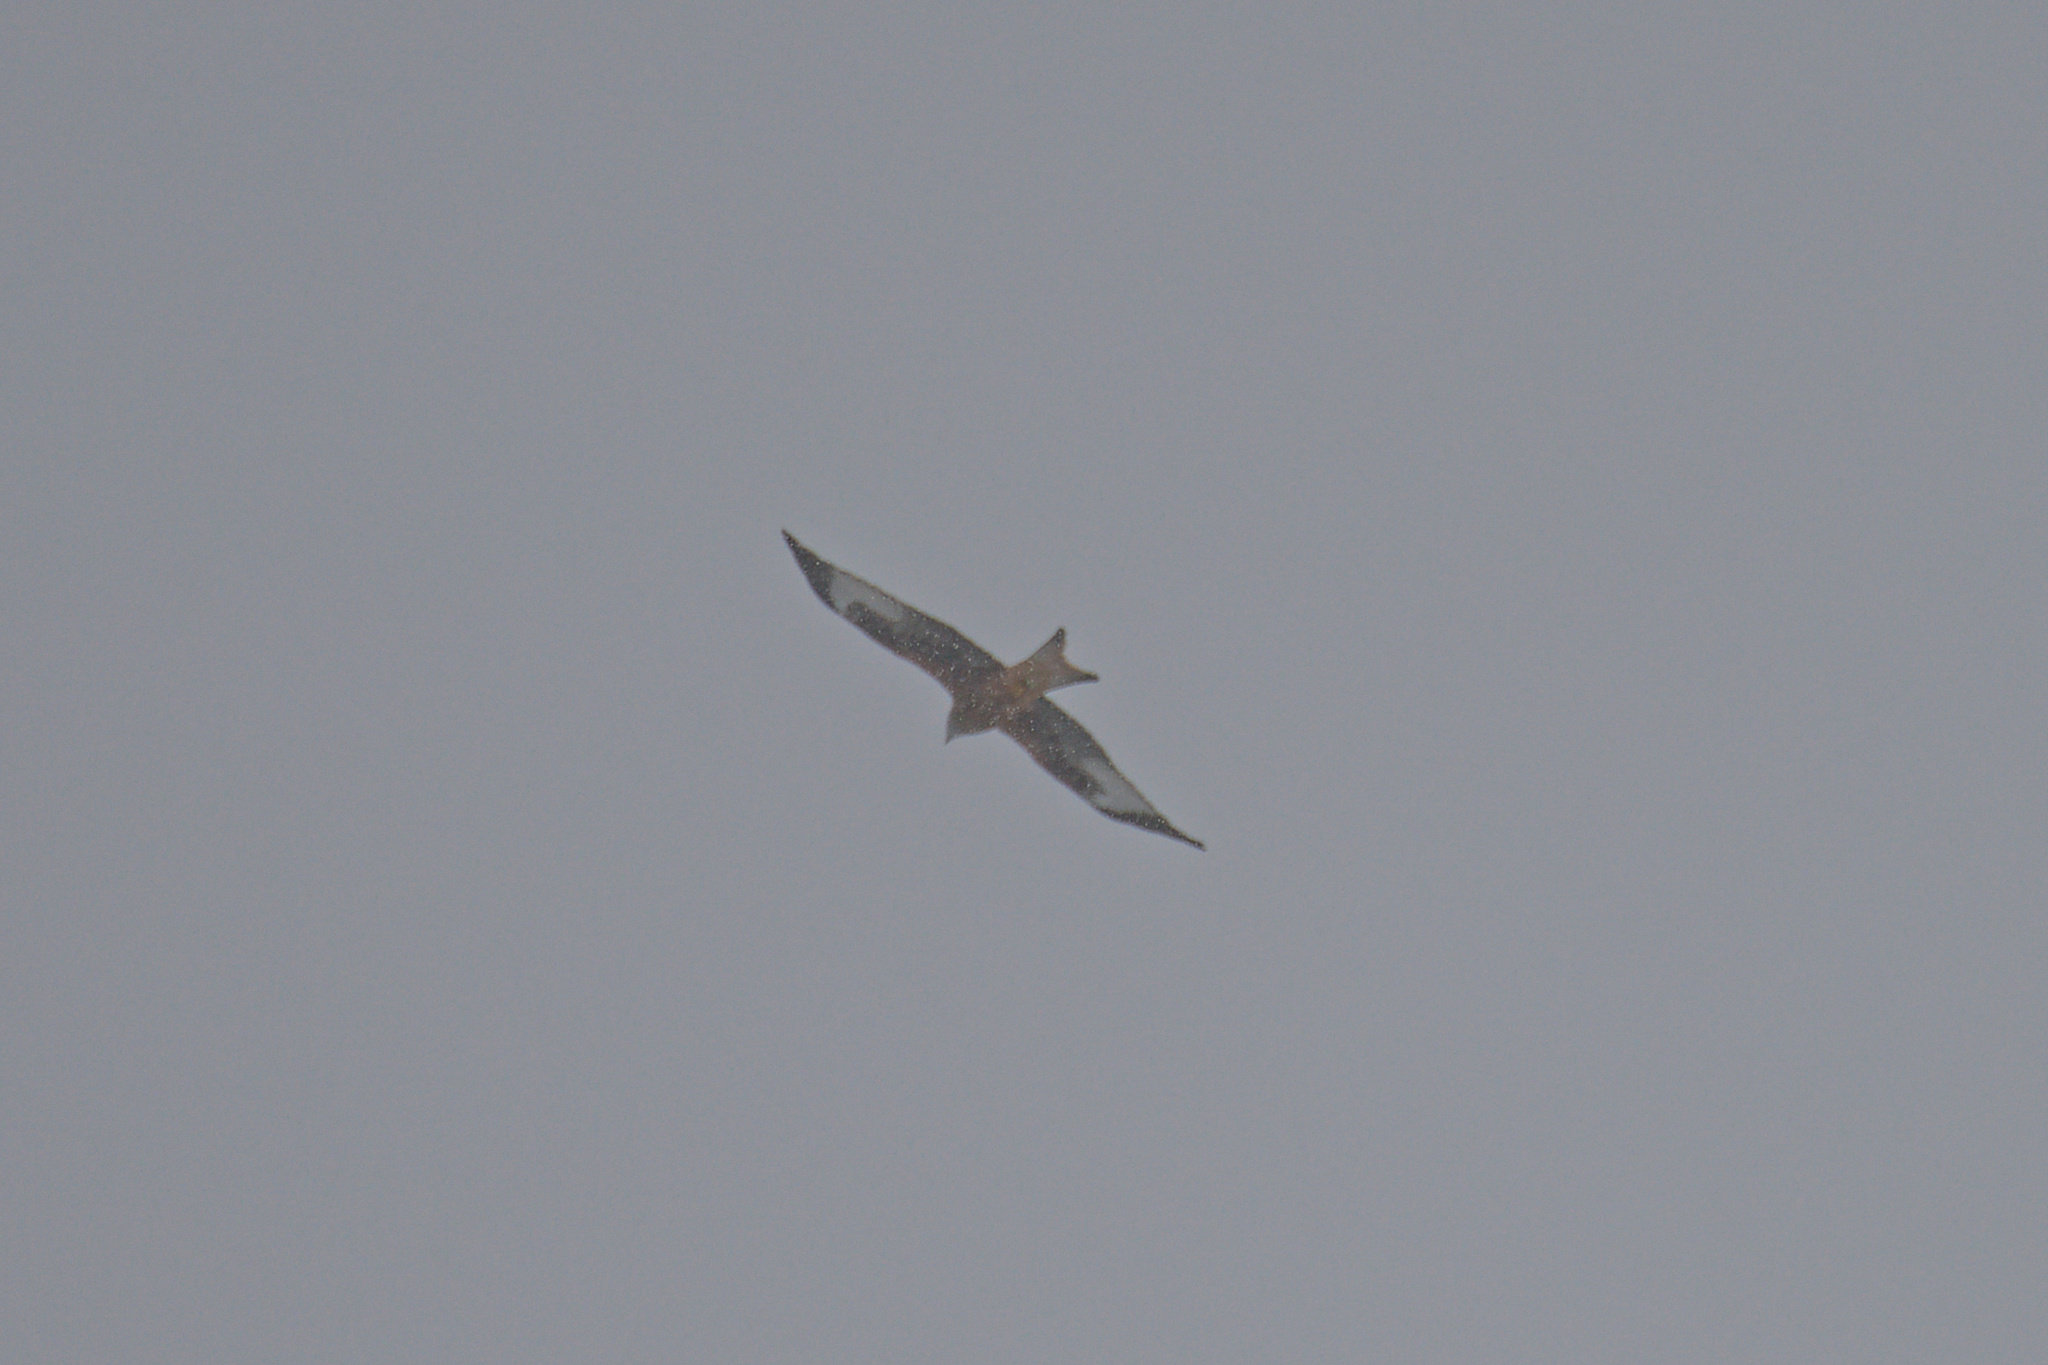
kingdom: Animalia
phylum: Chordata
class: Aves
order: Accipitriformes
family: Accipitridae
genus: Milvus
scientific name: Milvus milvus
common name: Red kite
